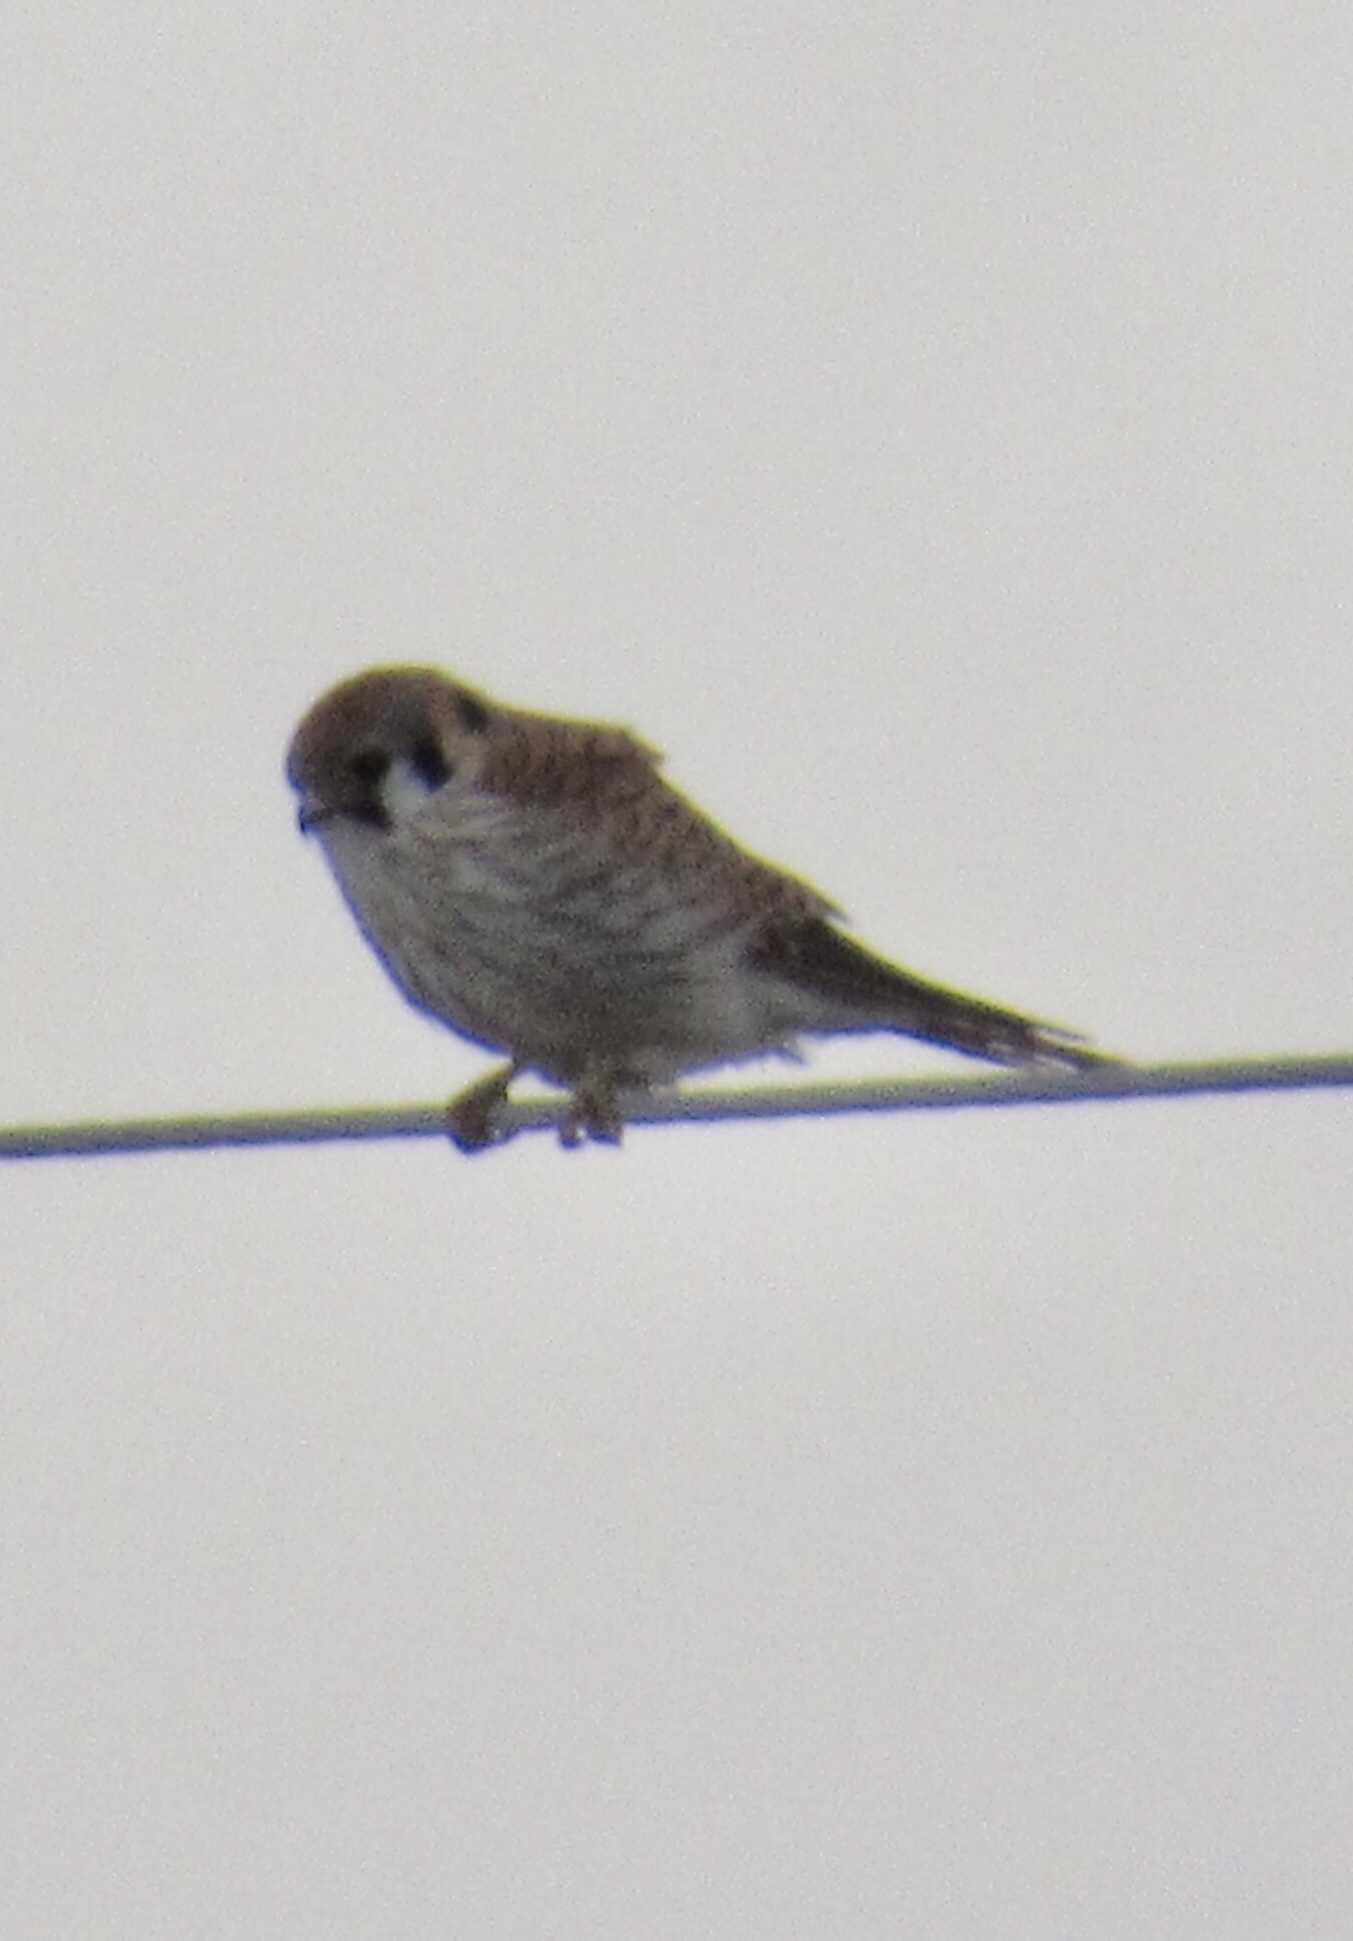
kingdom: Animalia
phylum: Chordata
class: Aves
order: Falconiformes
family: Falconidae
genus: Falco
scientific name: Falco sparverius
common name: American kestrel
